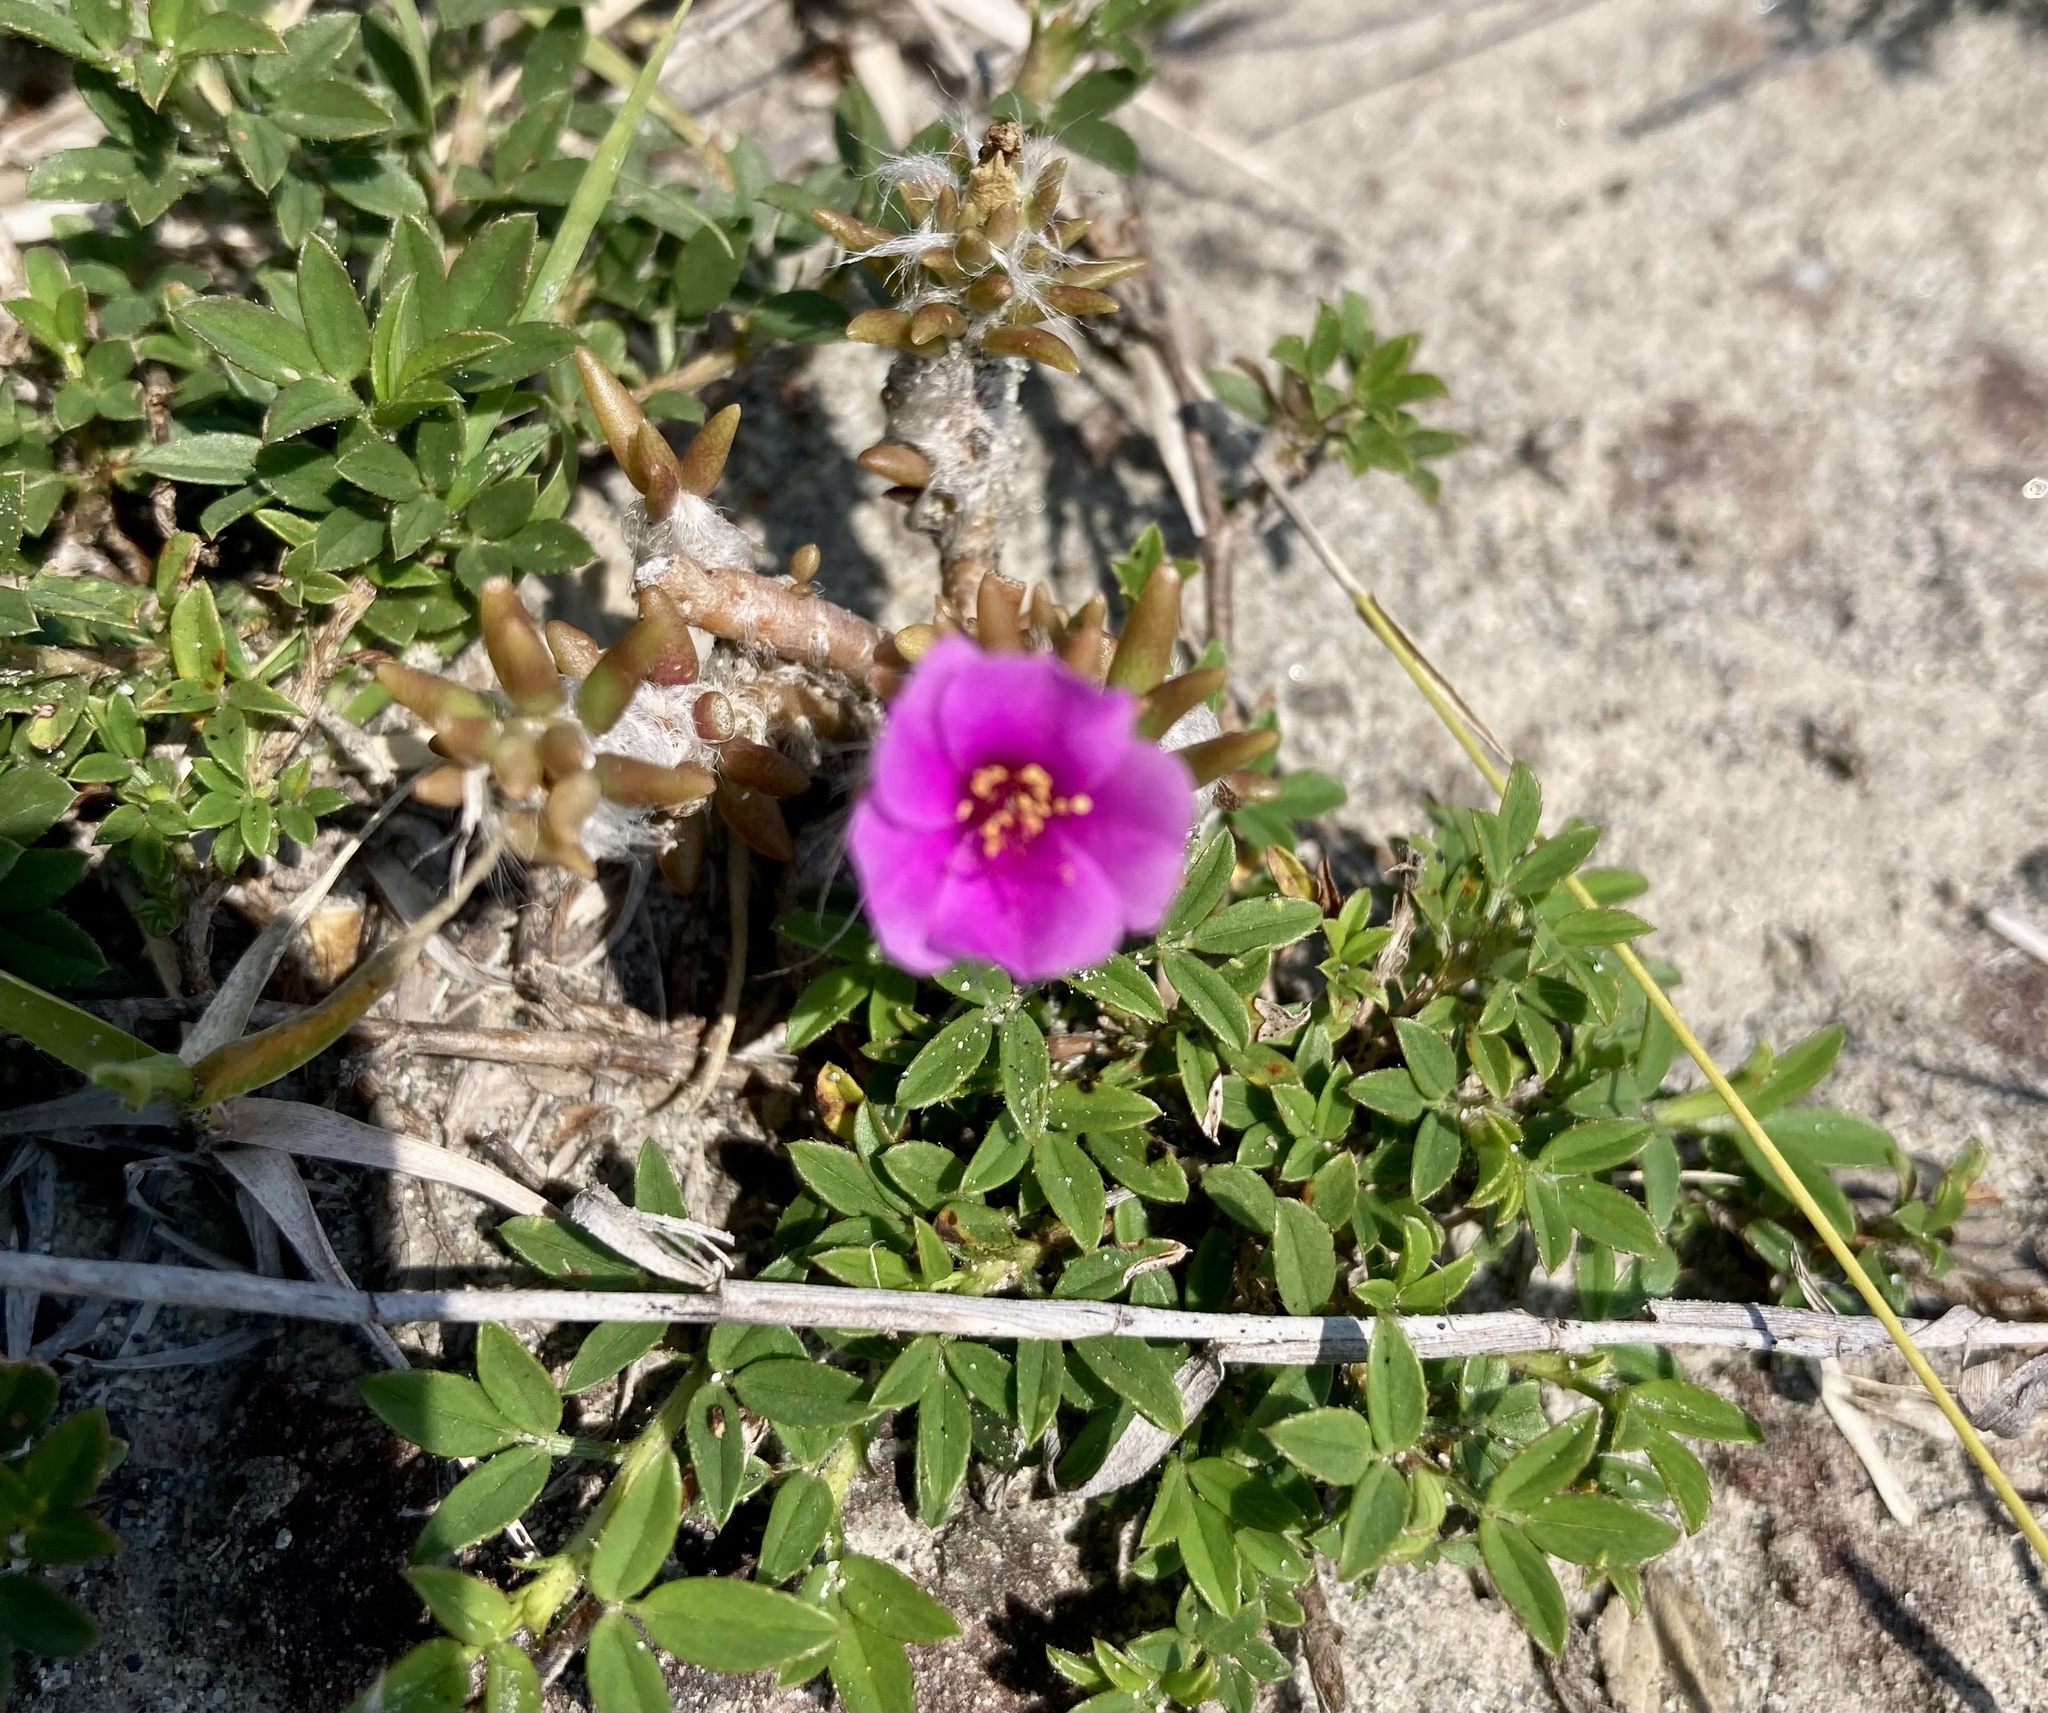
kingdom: Plantae
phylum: Tracheophyta
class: Magnoliopsida
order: Caryophyllales
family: Portulacaceae
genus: Portulaca
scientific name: Portulaca pilosa
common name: Kiss me quick
